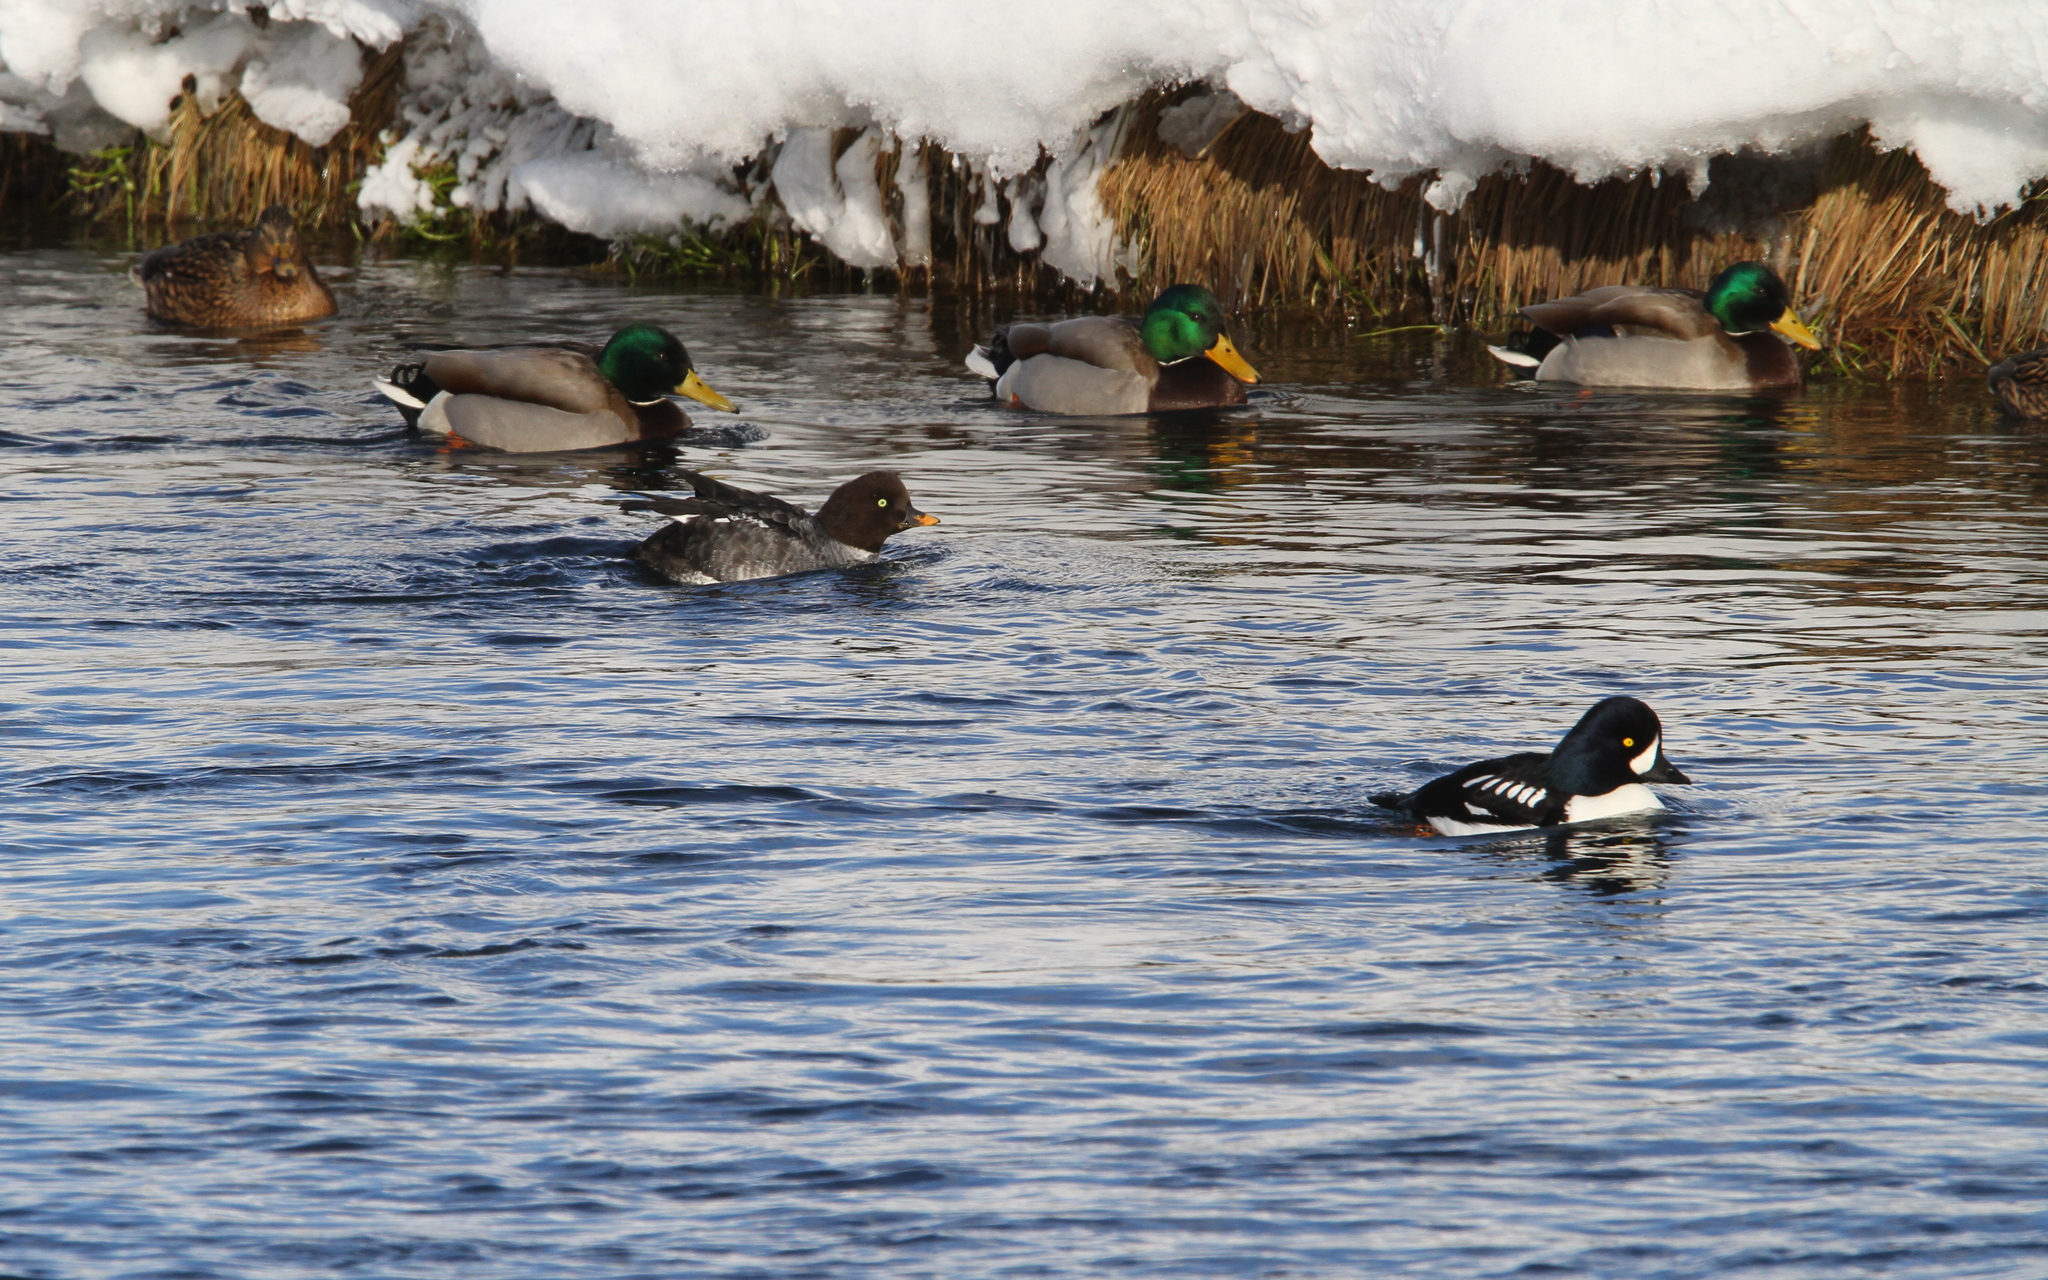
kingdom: Animalia
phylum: Chordata
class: Aves
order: Anseriformes
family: Anatidae
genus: Bucephala
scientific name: Bucephala islandica
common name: Barrow's goldeneye
